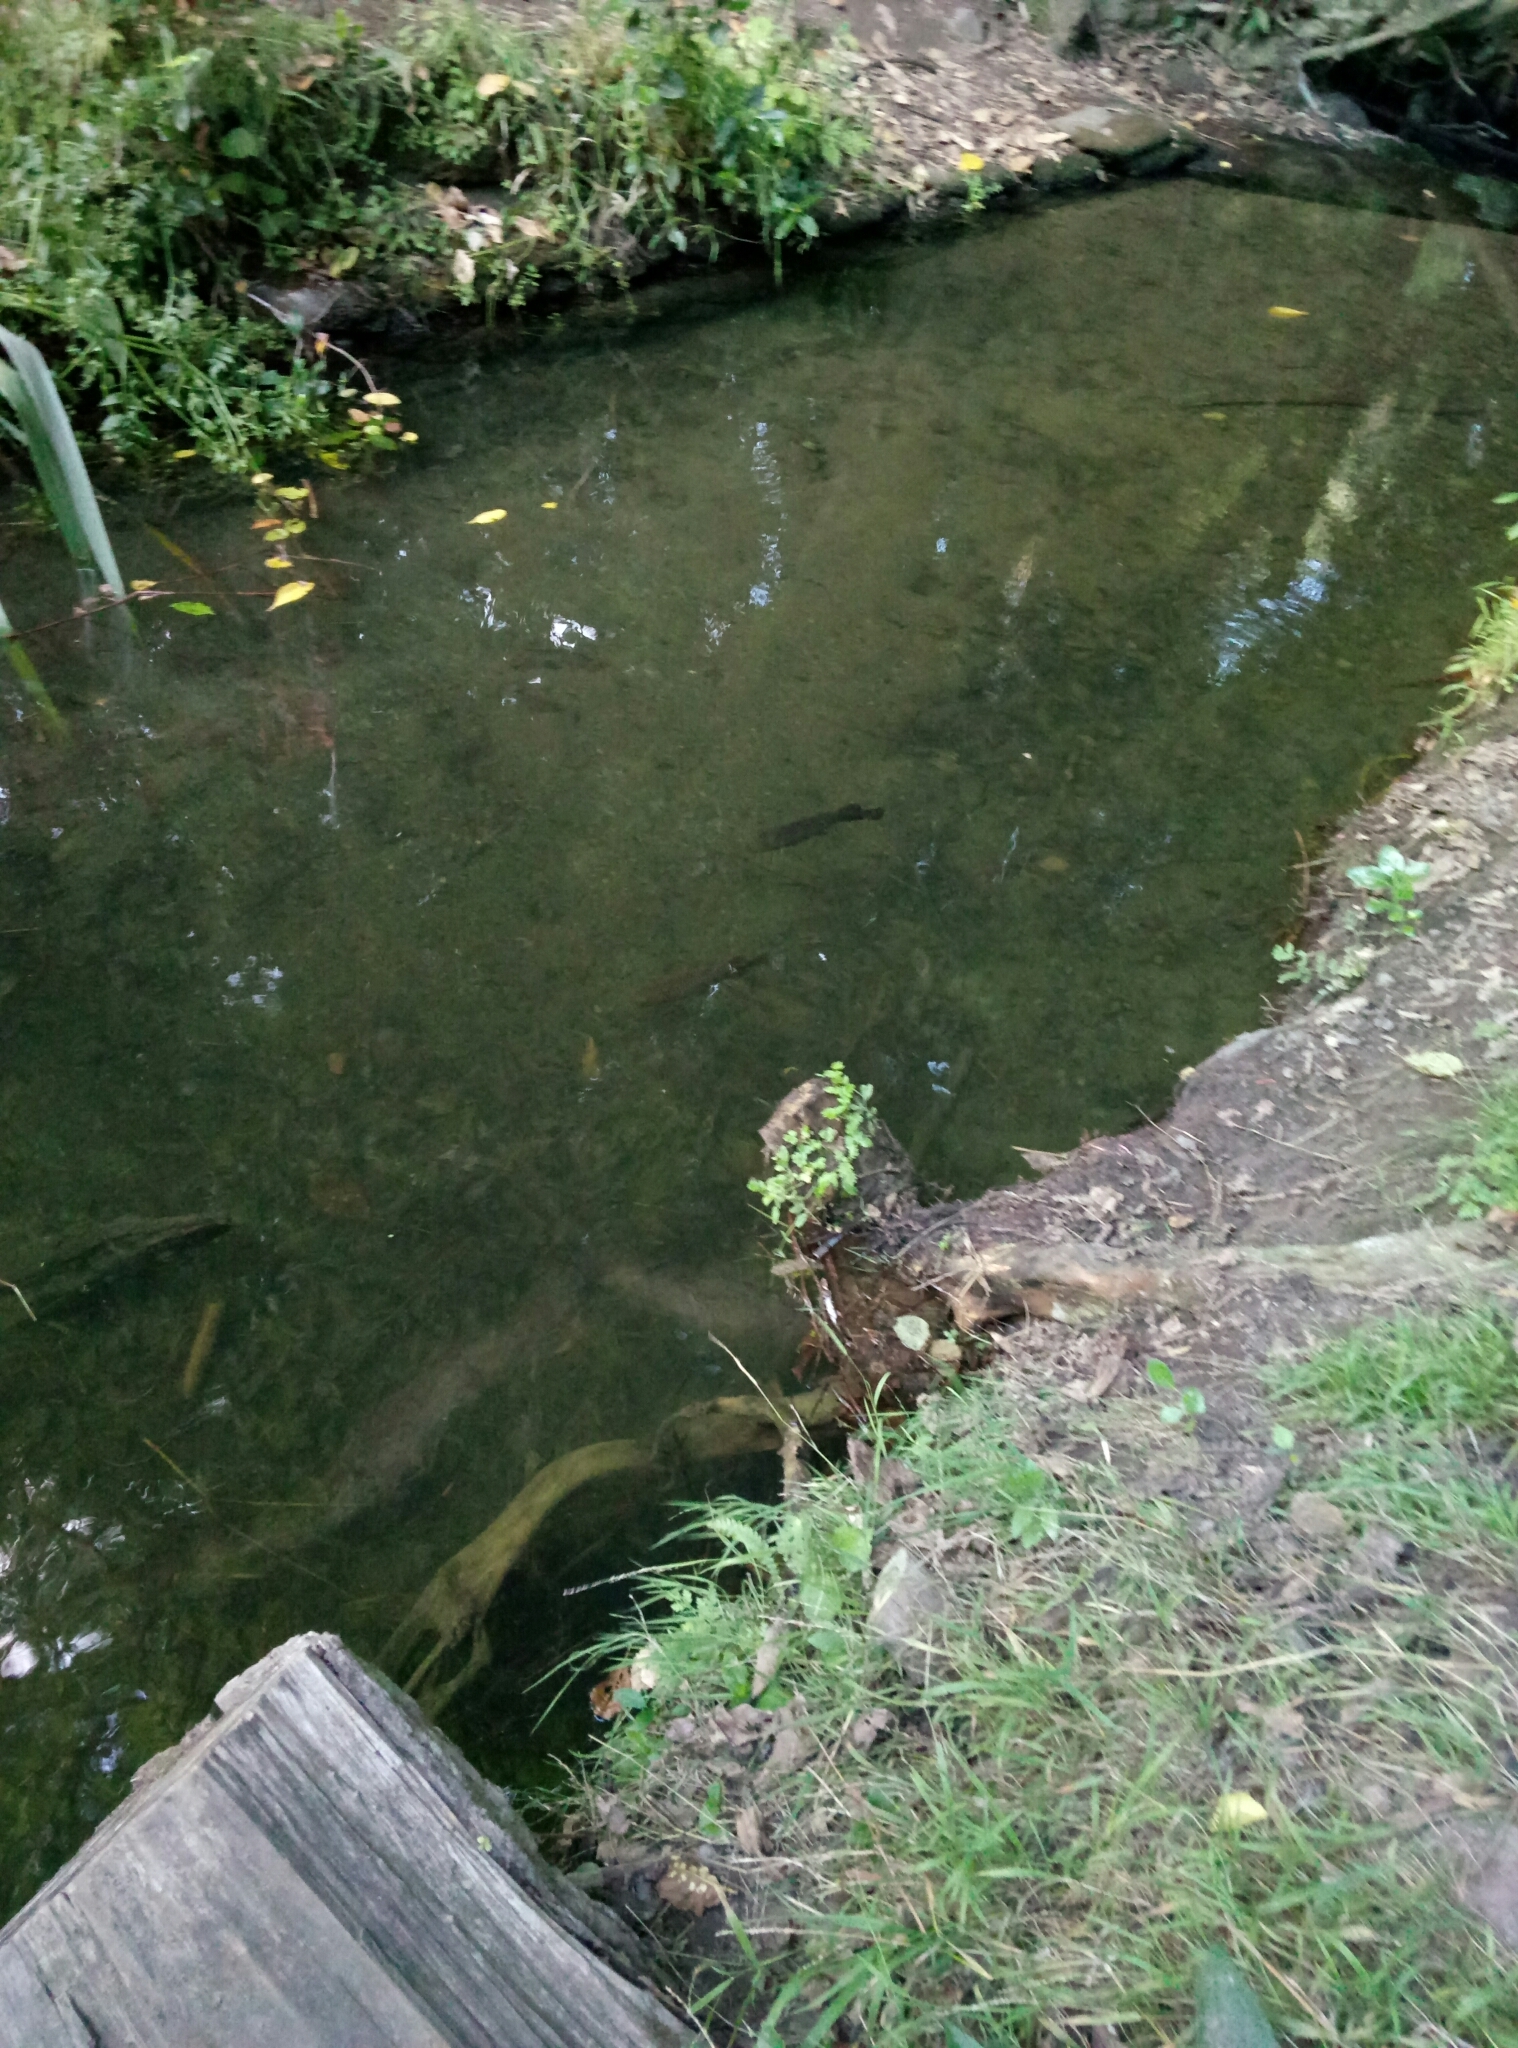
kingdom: Animalia
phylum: Chordata
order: Osmeriformes
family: Galaxiidae
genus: Galaxias
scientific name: Galaxias argenteus
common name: Giant kokopu
